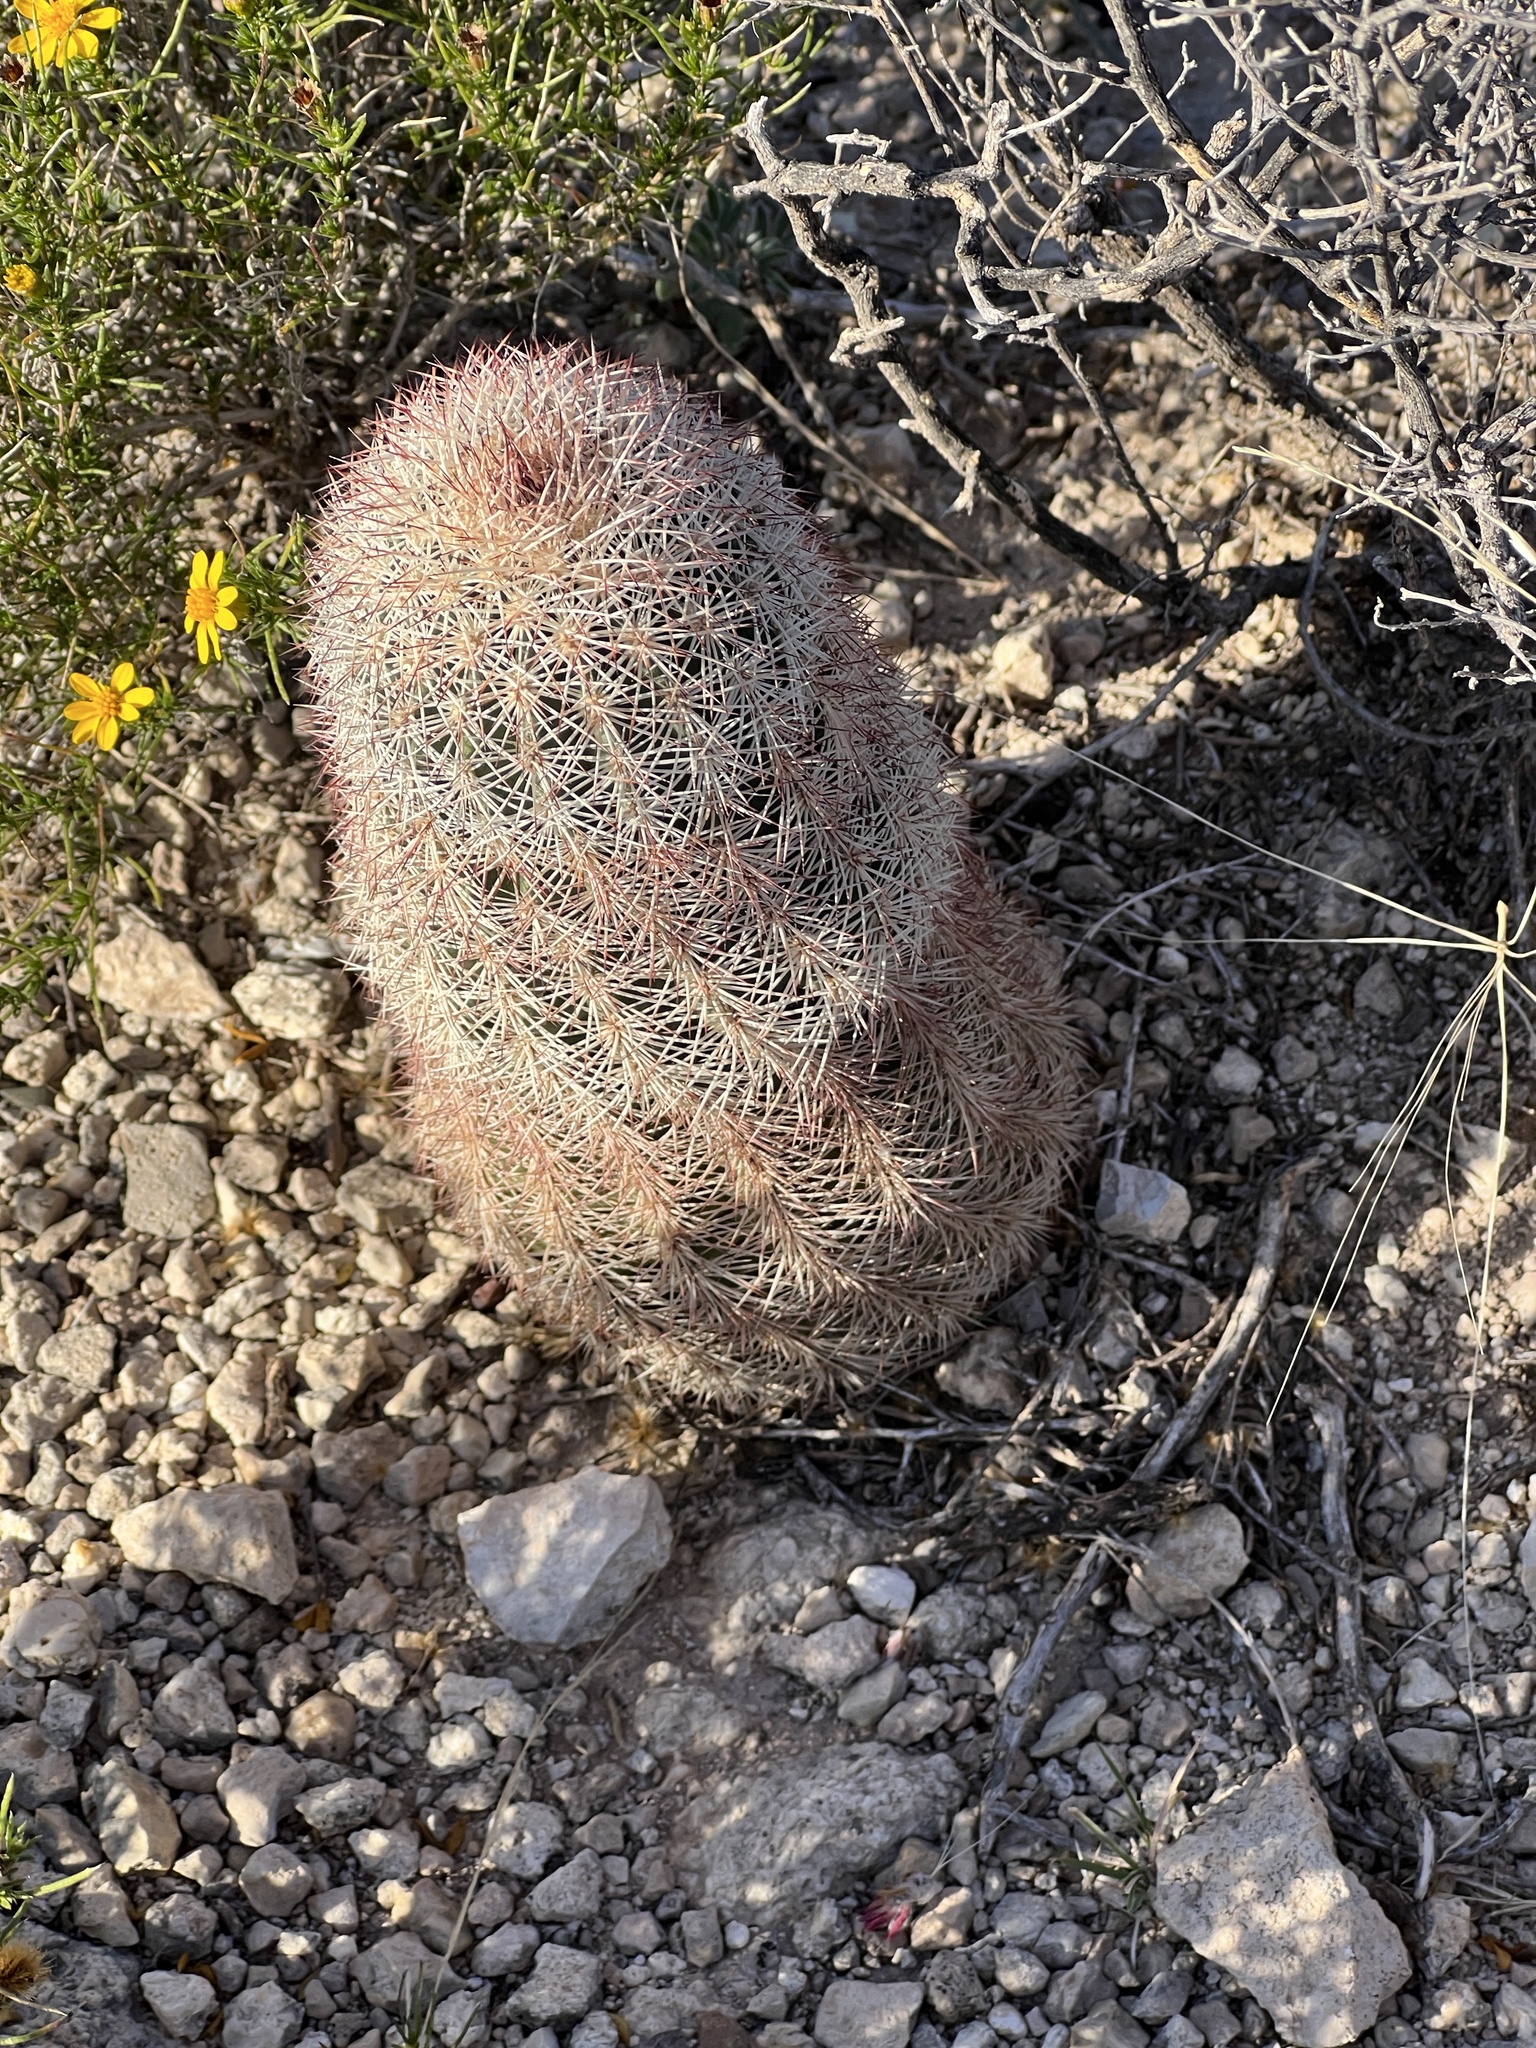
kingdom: Plantae
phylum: Tracheophyta
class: Magnoliopsida
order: Caryophyllales
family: Cactaceae
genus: Echinocereus
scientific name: Echinocereus dasyacanthus
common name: Spiny hedgehog cactus
